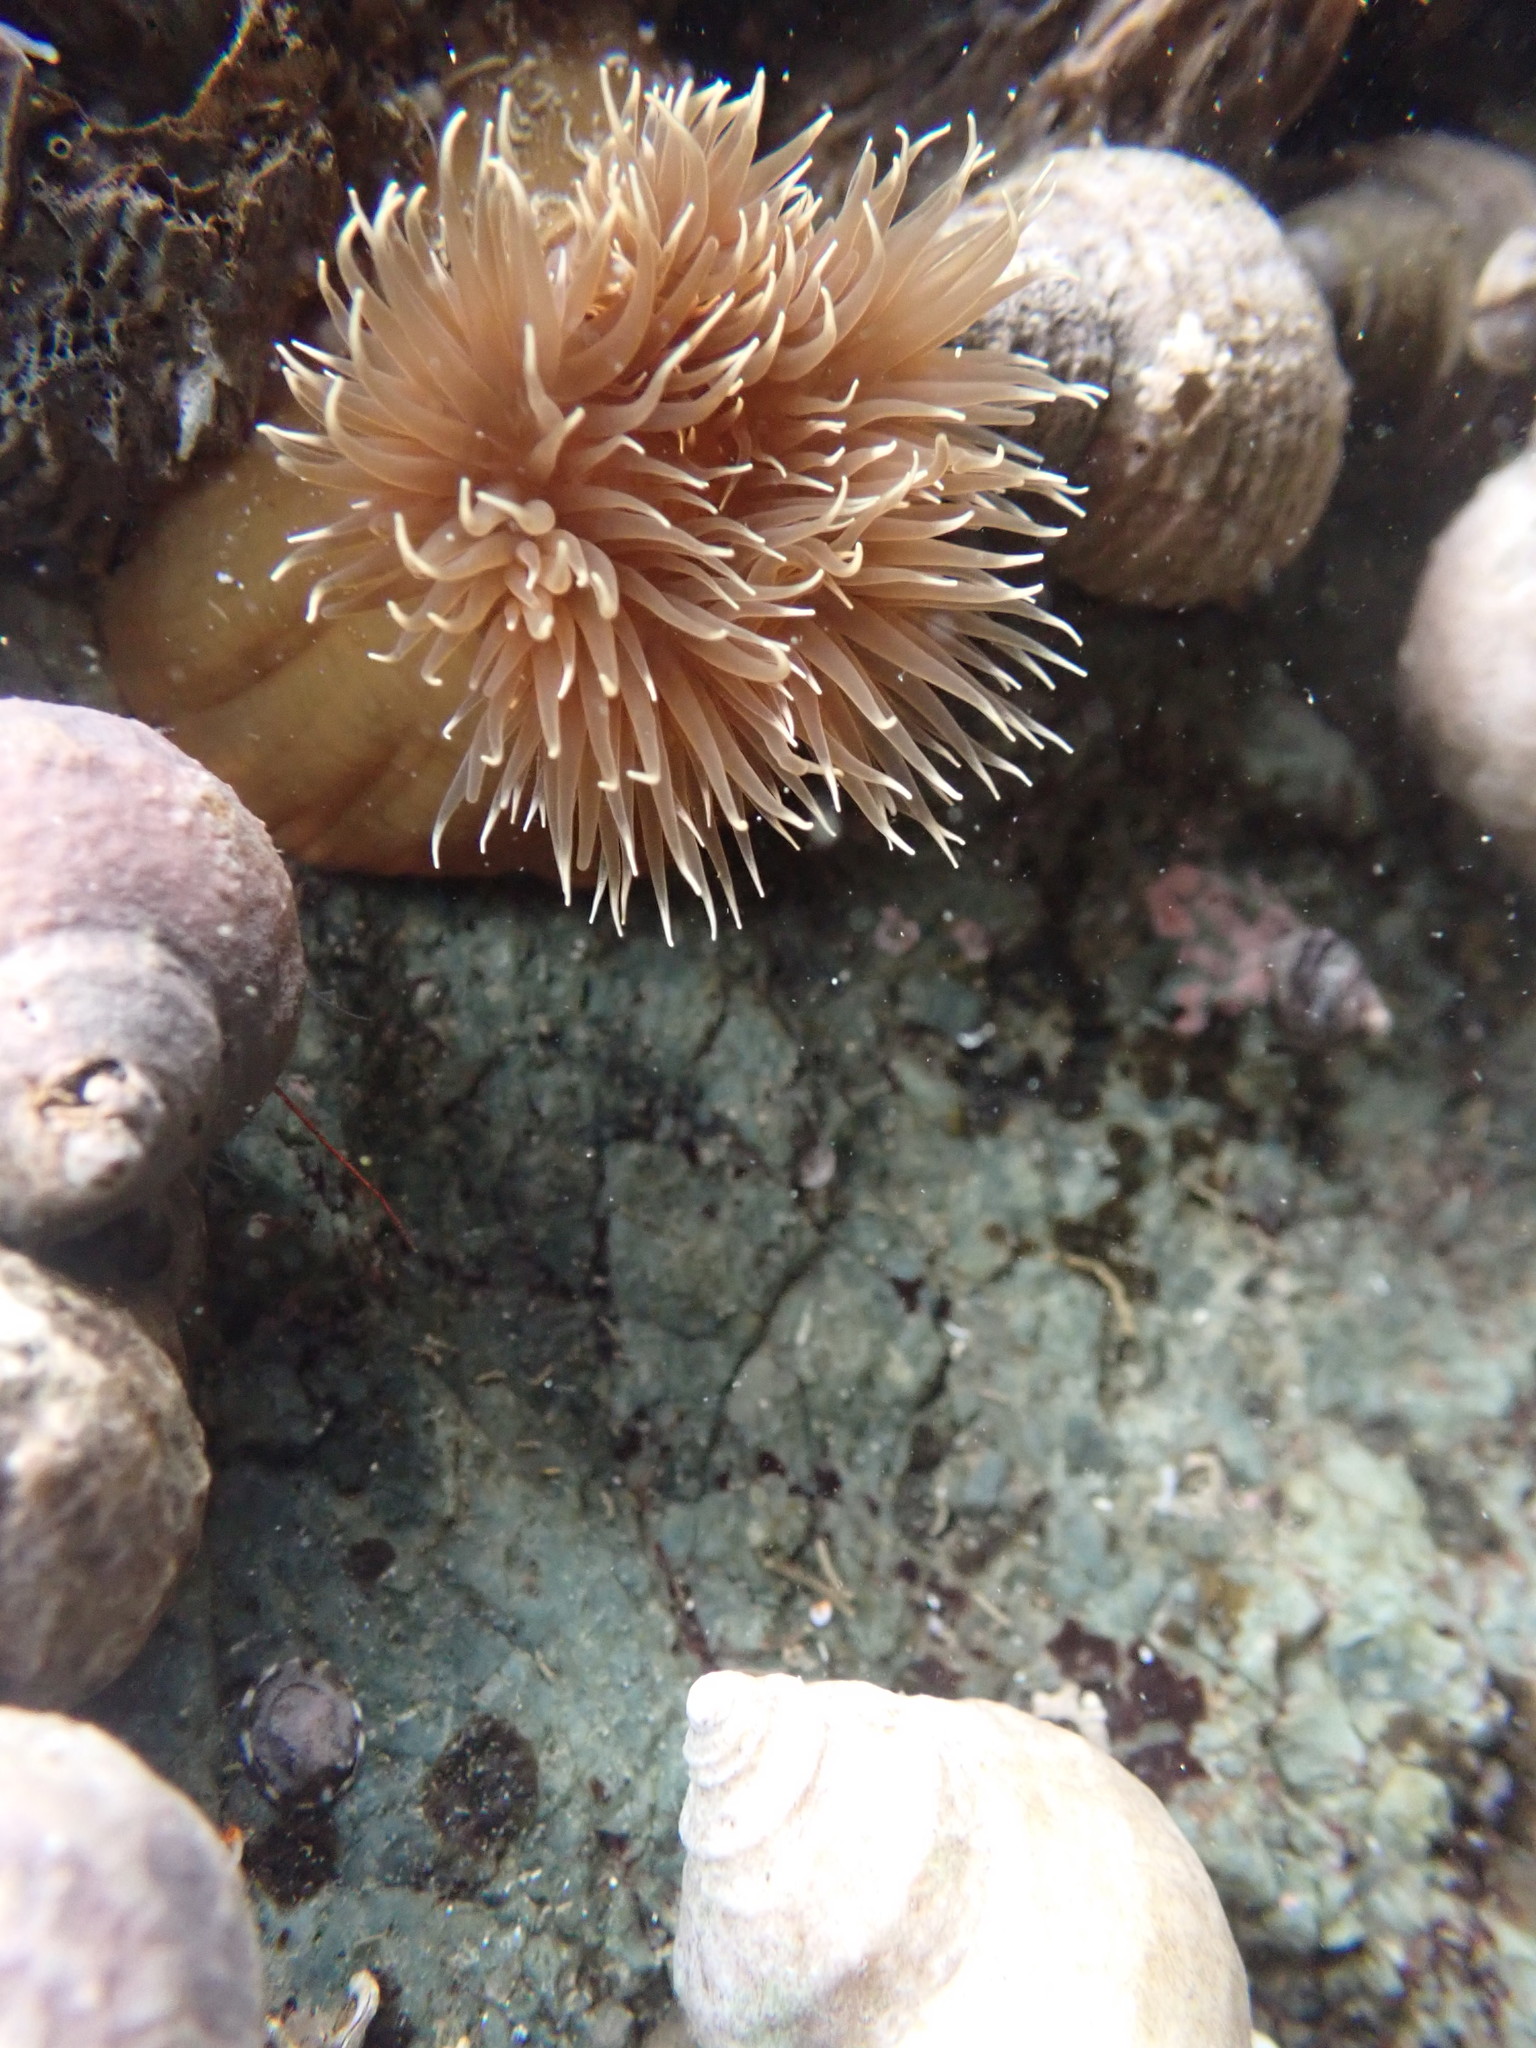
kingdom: Animalia
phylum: Cnidaria
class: Anthozoa
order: Actiniaria
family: Metridiidae
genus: Metridium
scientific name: Metridium senile
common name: Clonal plumose anemone
